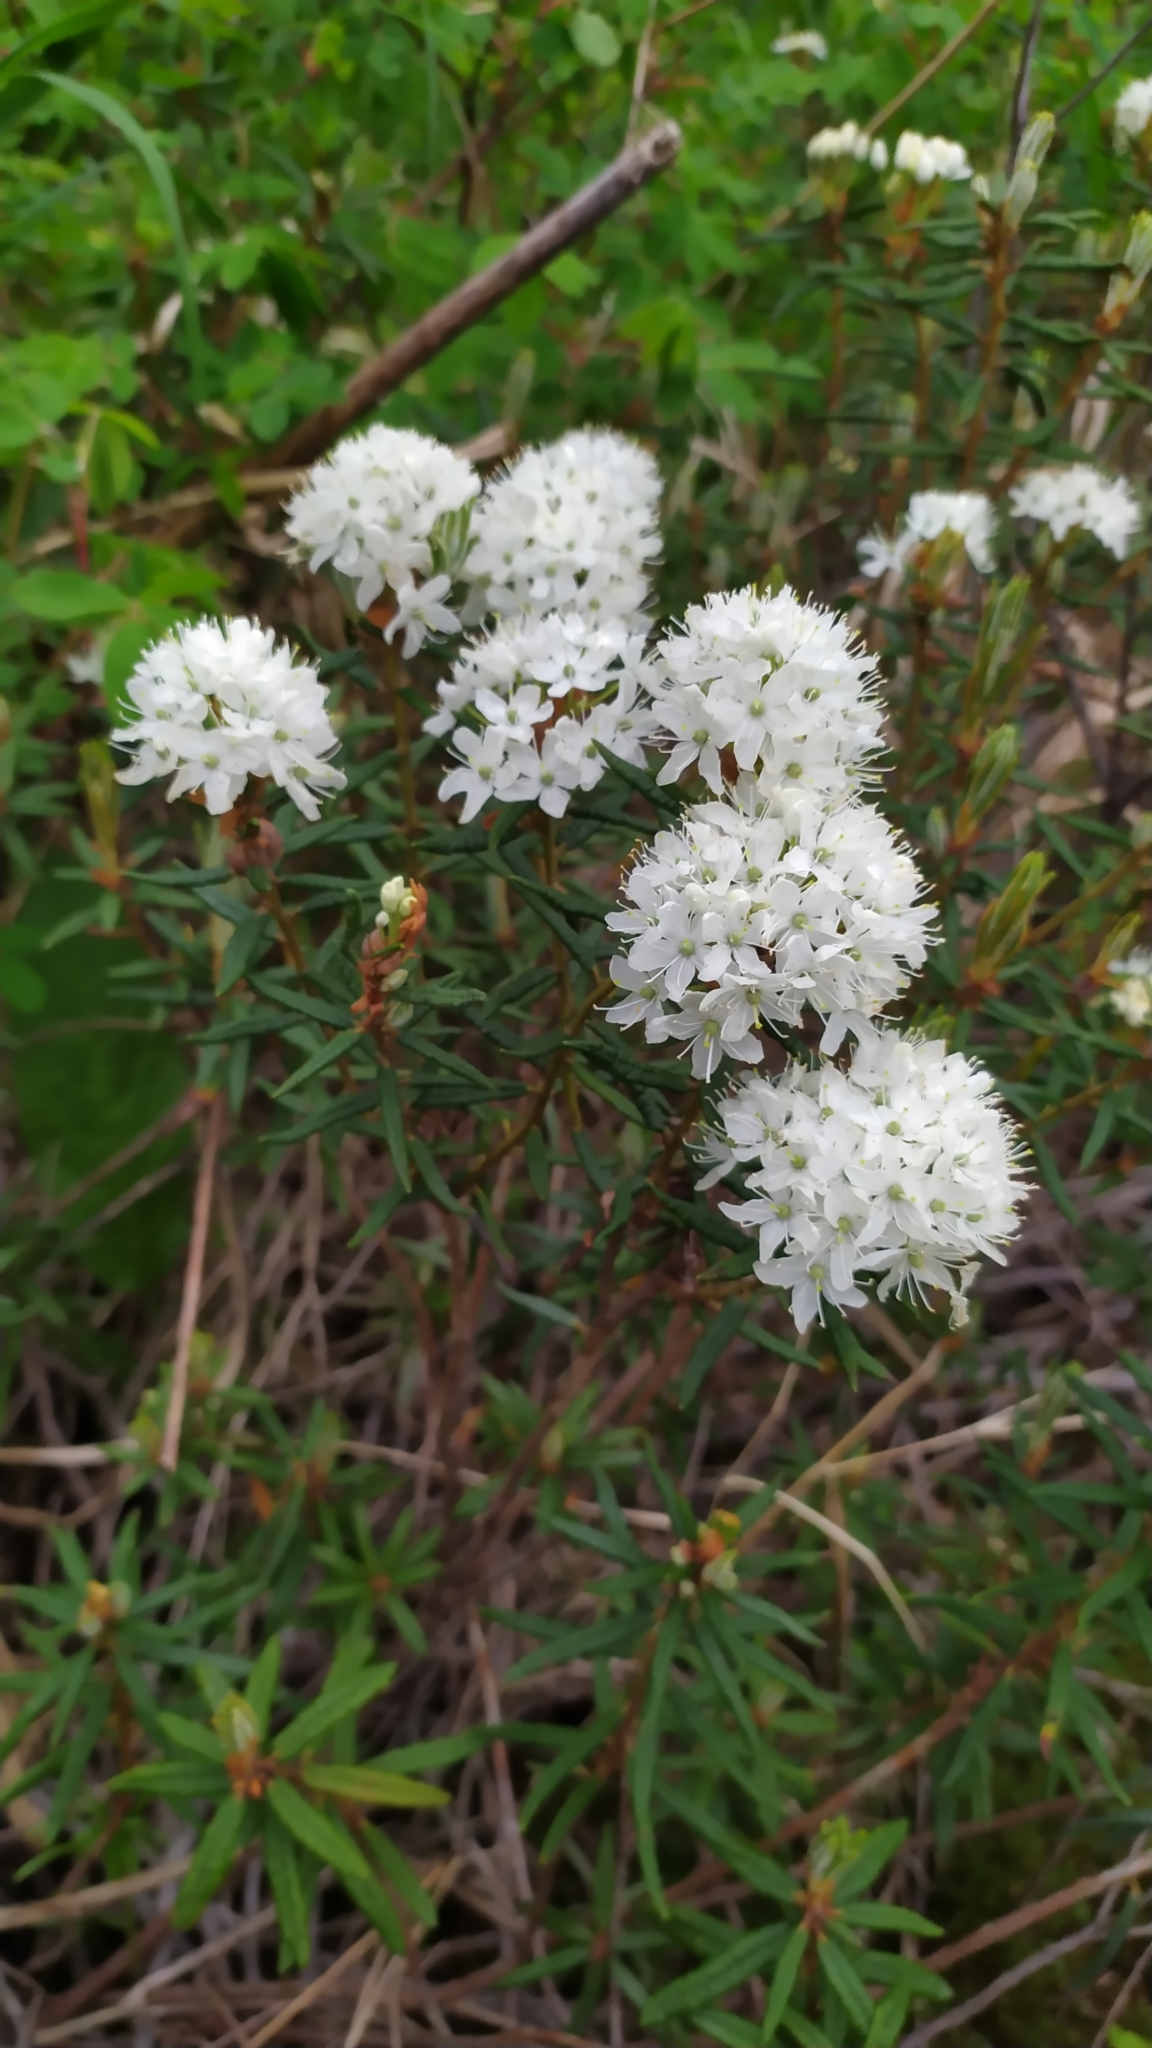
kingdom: Plantae
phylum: Tracheophyta
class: Magnoliopsida
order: Ericales
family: Ericaceae
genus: Rhododendron
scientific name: Rhododendron tomentosum
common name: Marsh labrador tea
